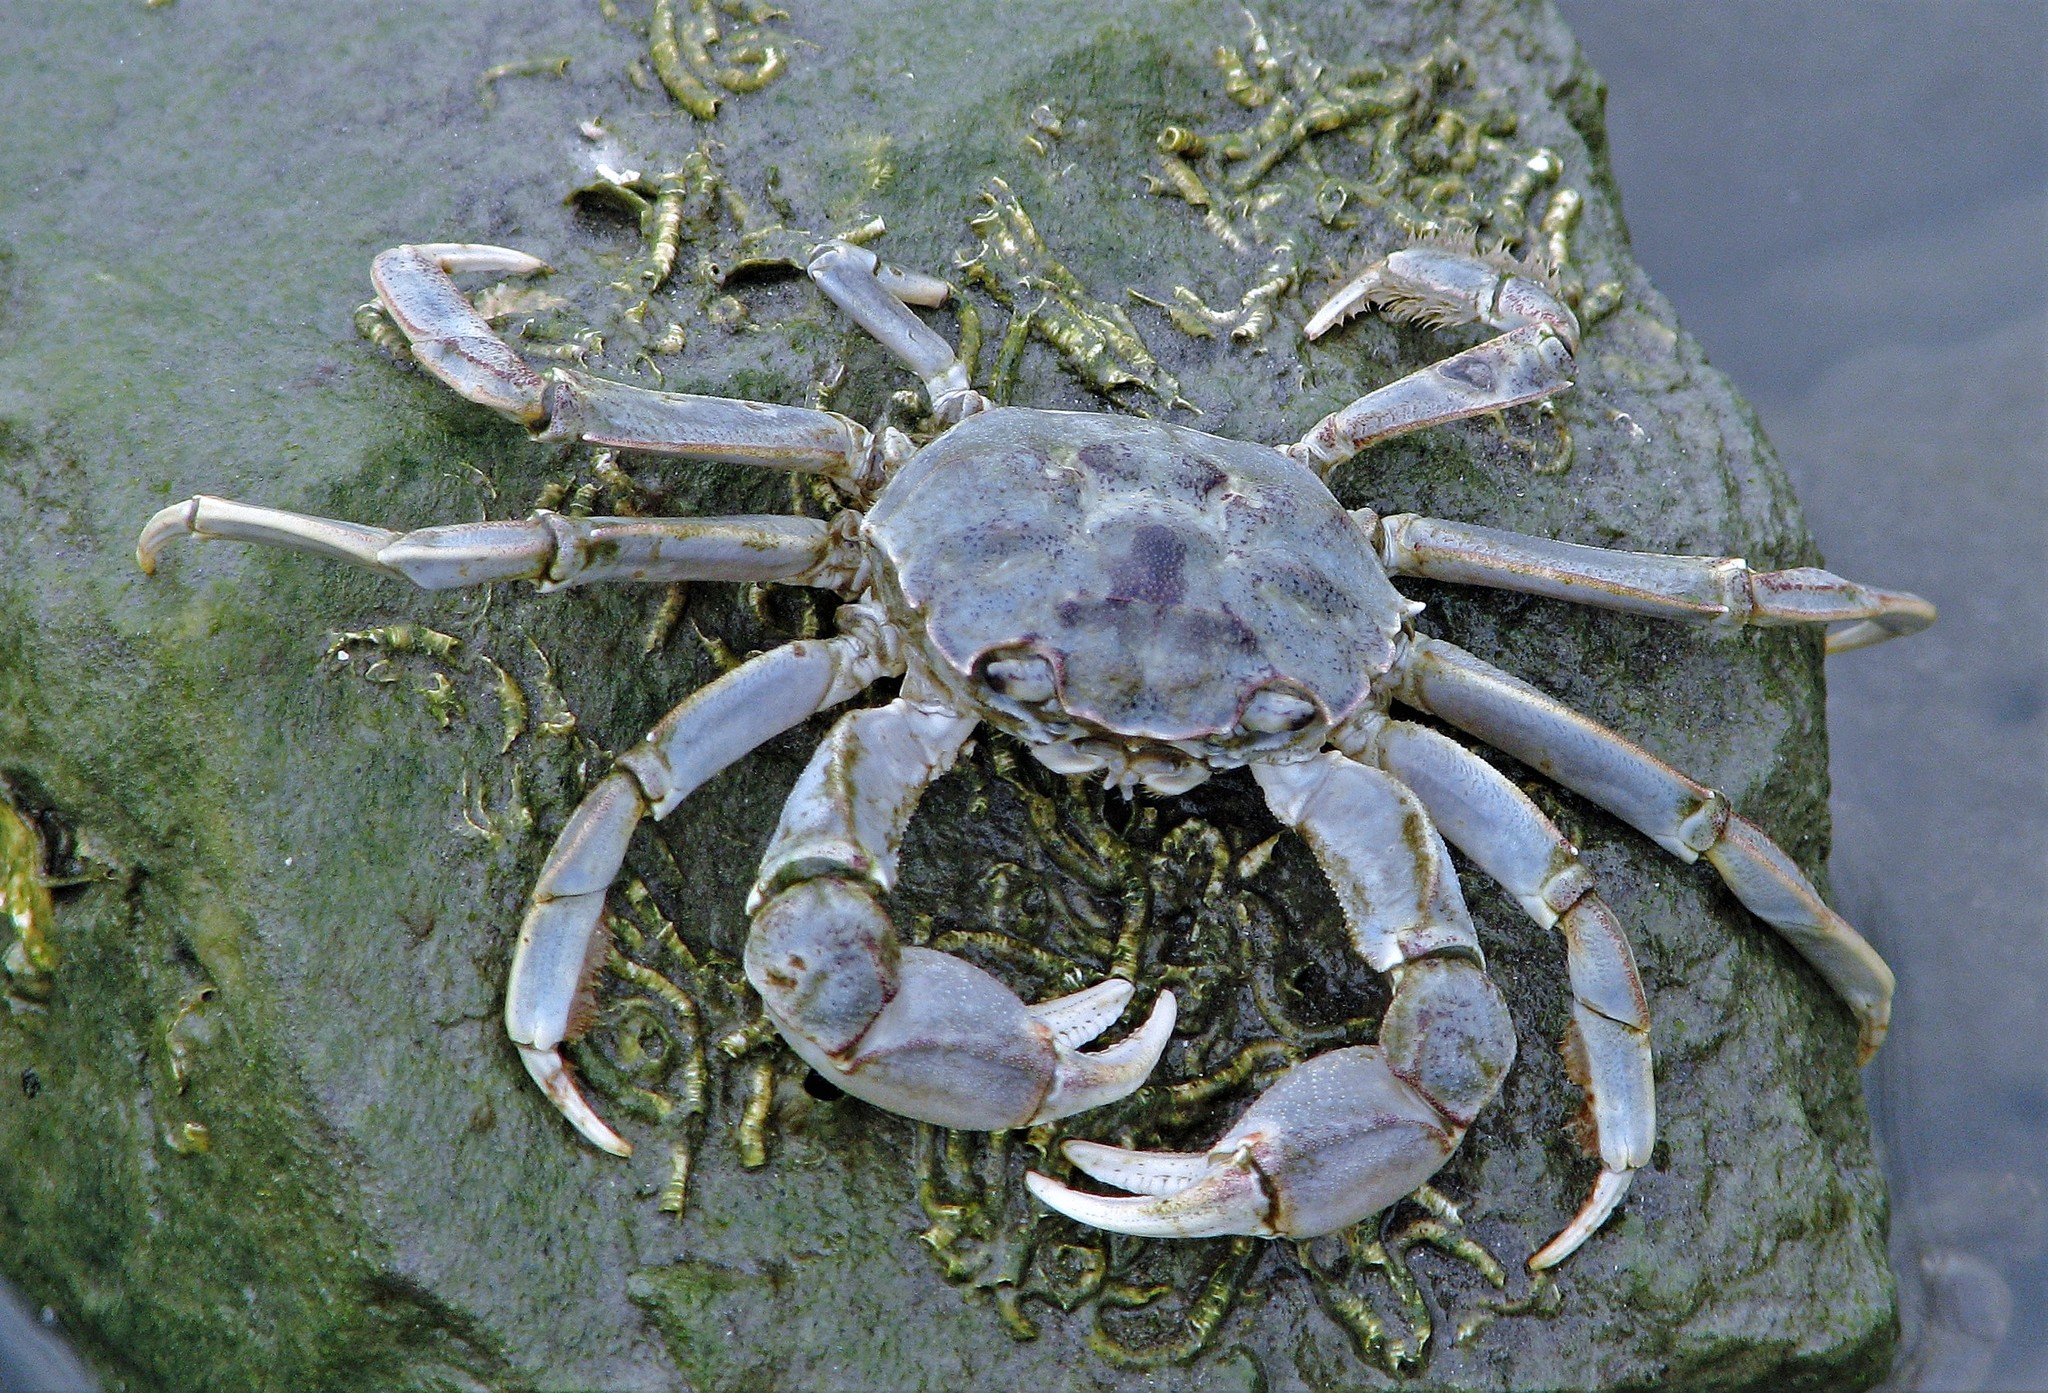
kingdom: Animalia
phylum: Arthropoda
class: Malacostraca
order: Decapoda
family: Varunidae
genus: Cyrtograpsus
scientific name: Cyrtograpsus angulatus
